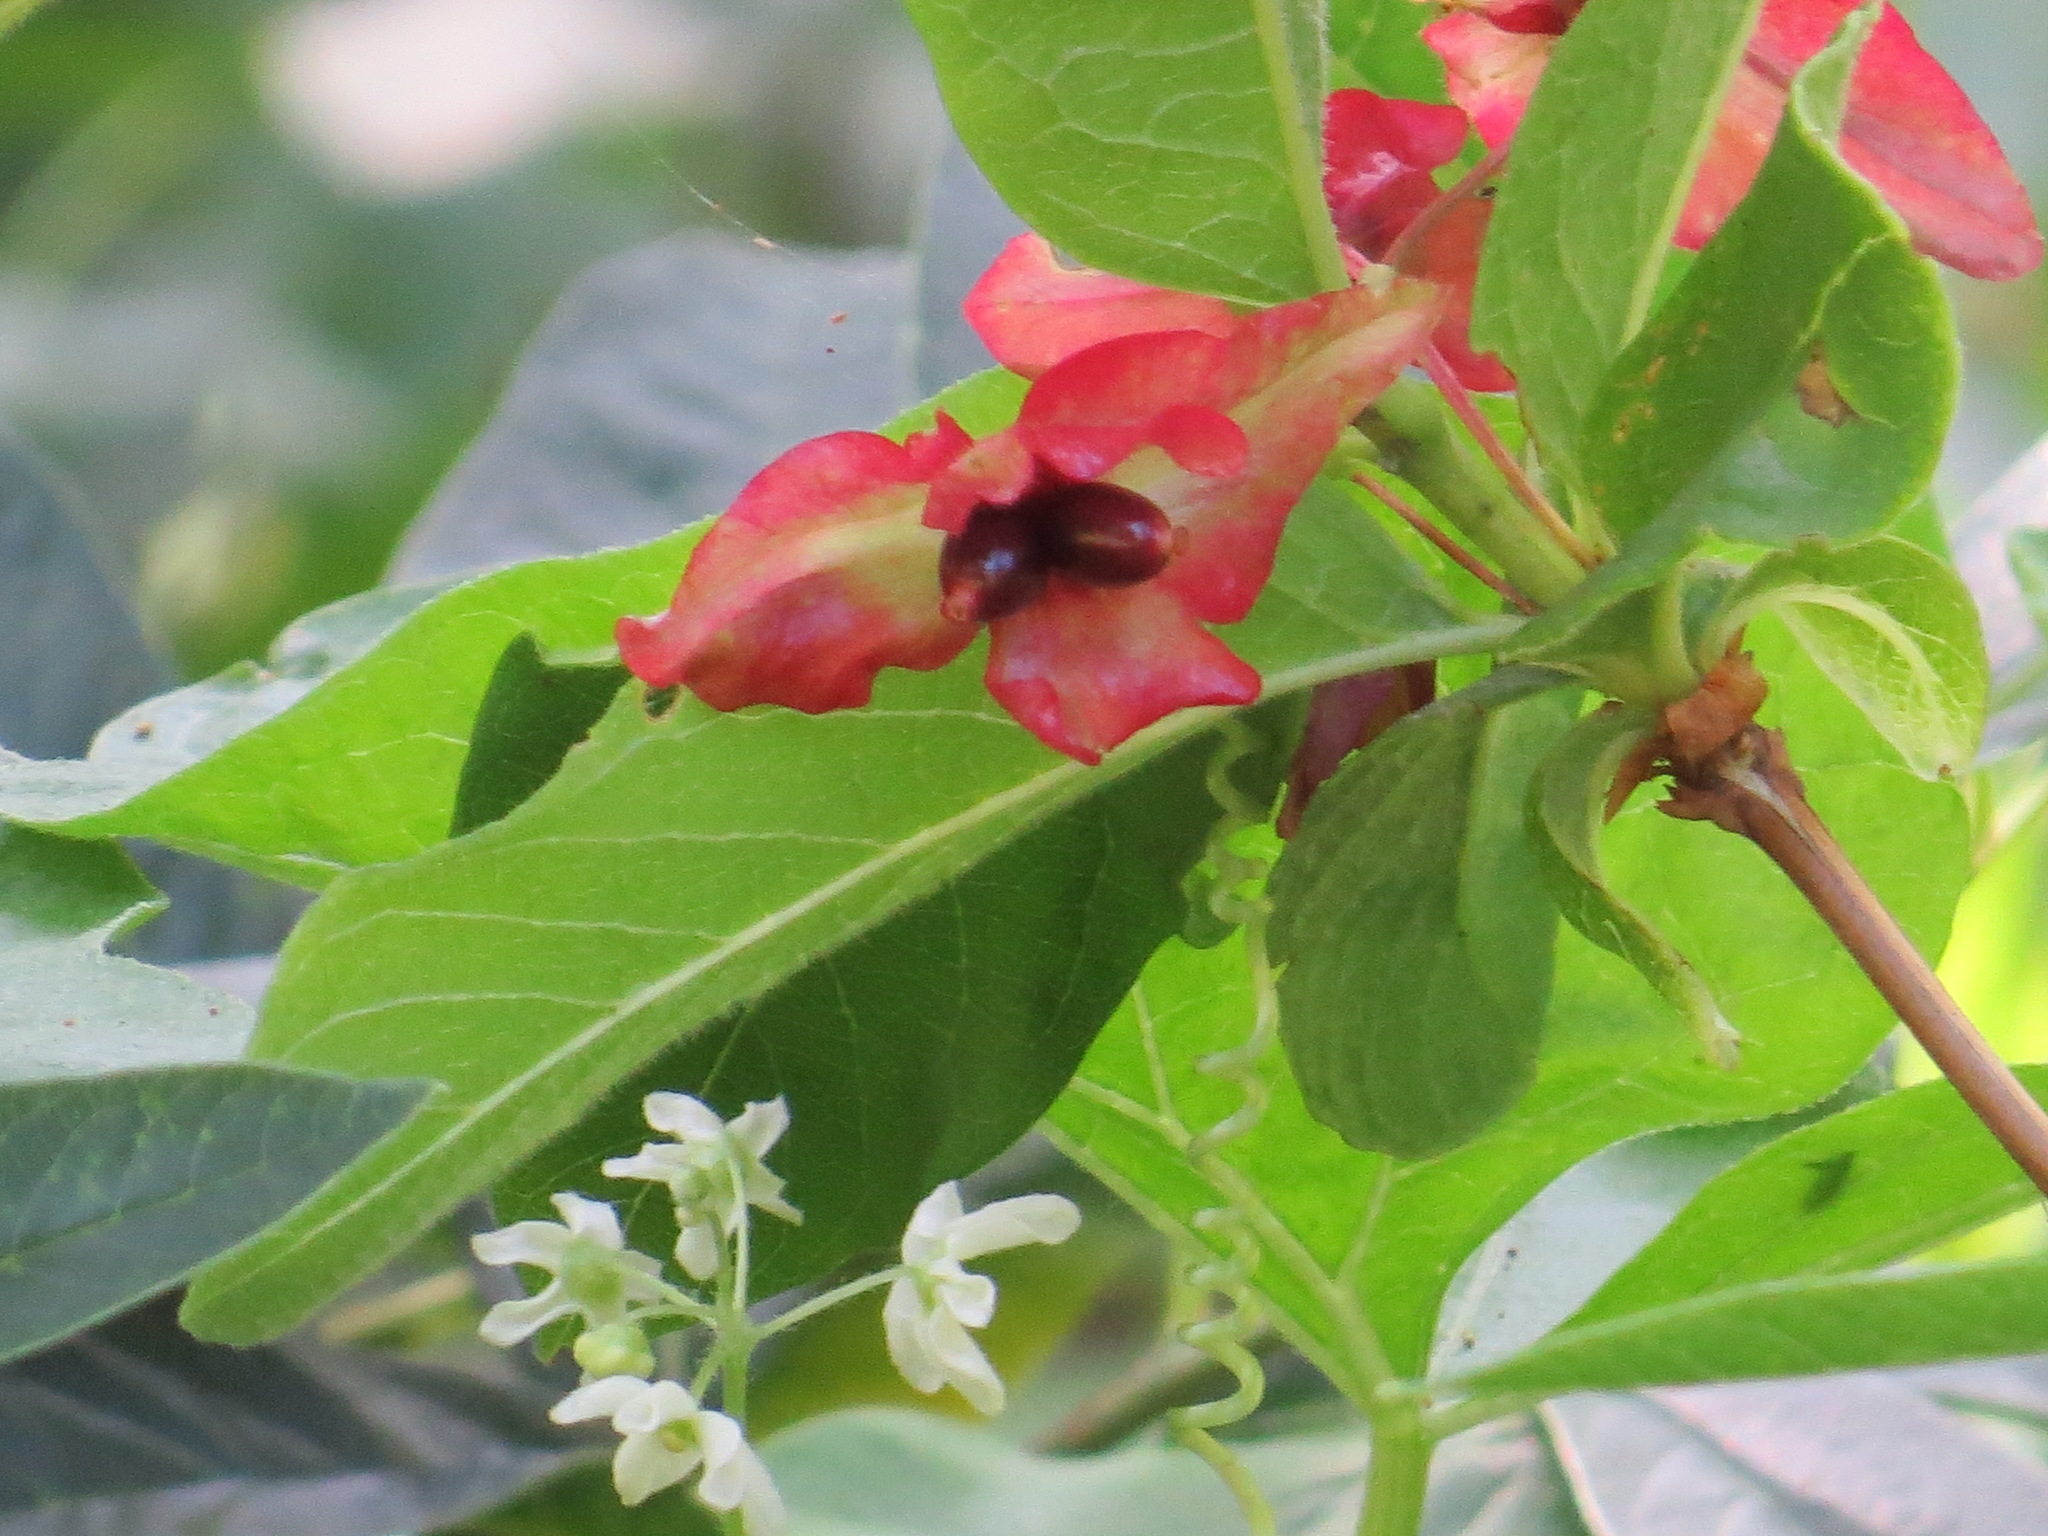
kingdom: Plantae
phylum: Tracheophyta
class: Magnoliopsida
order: Dipsacales
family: Caprifoliaceae
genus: Lonicera
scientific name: Lonicera involucrata
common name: Californian honeysuckle
